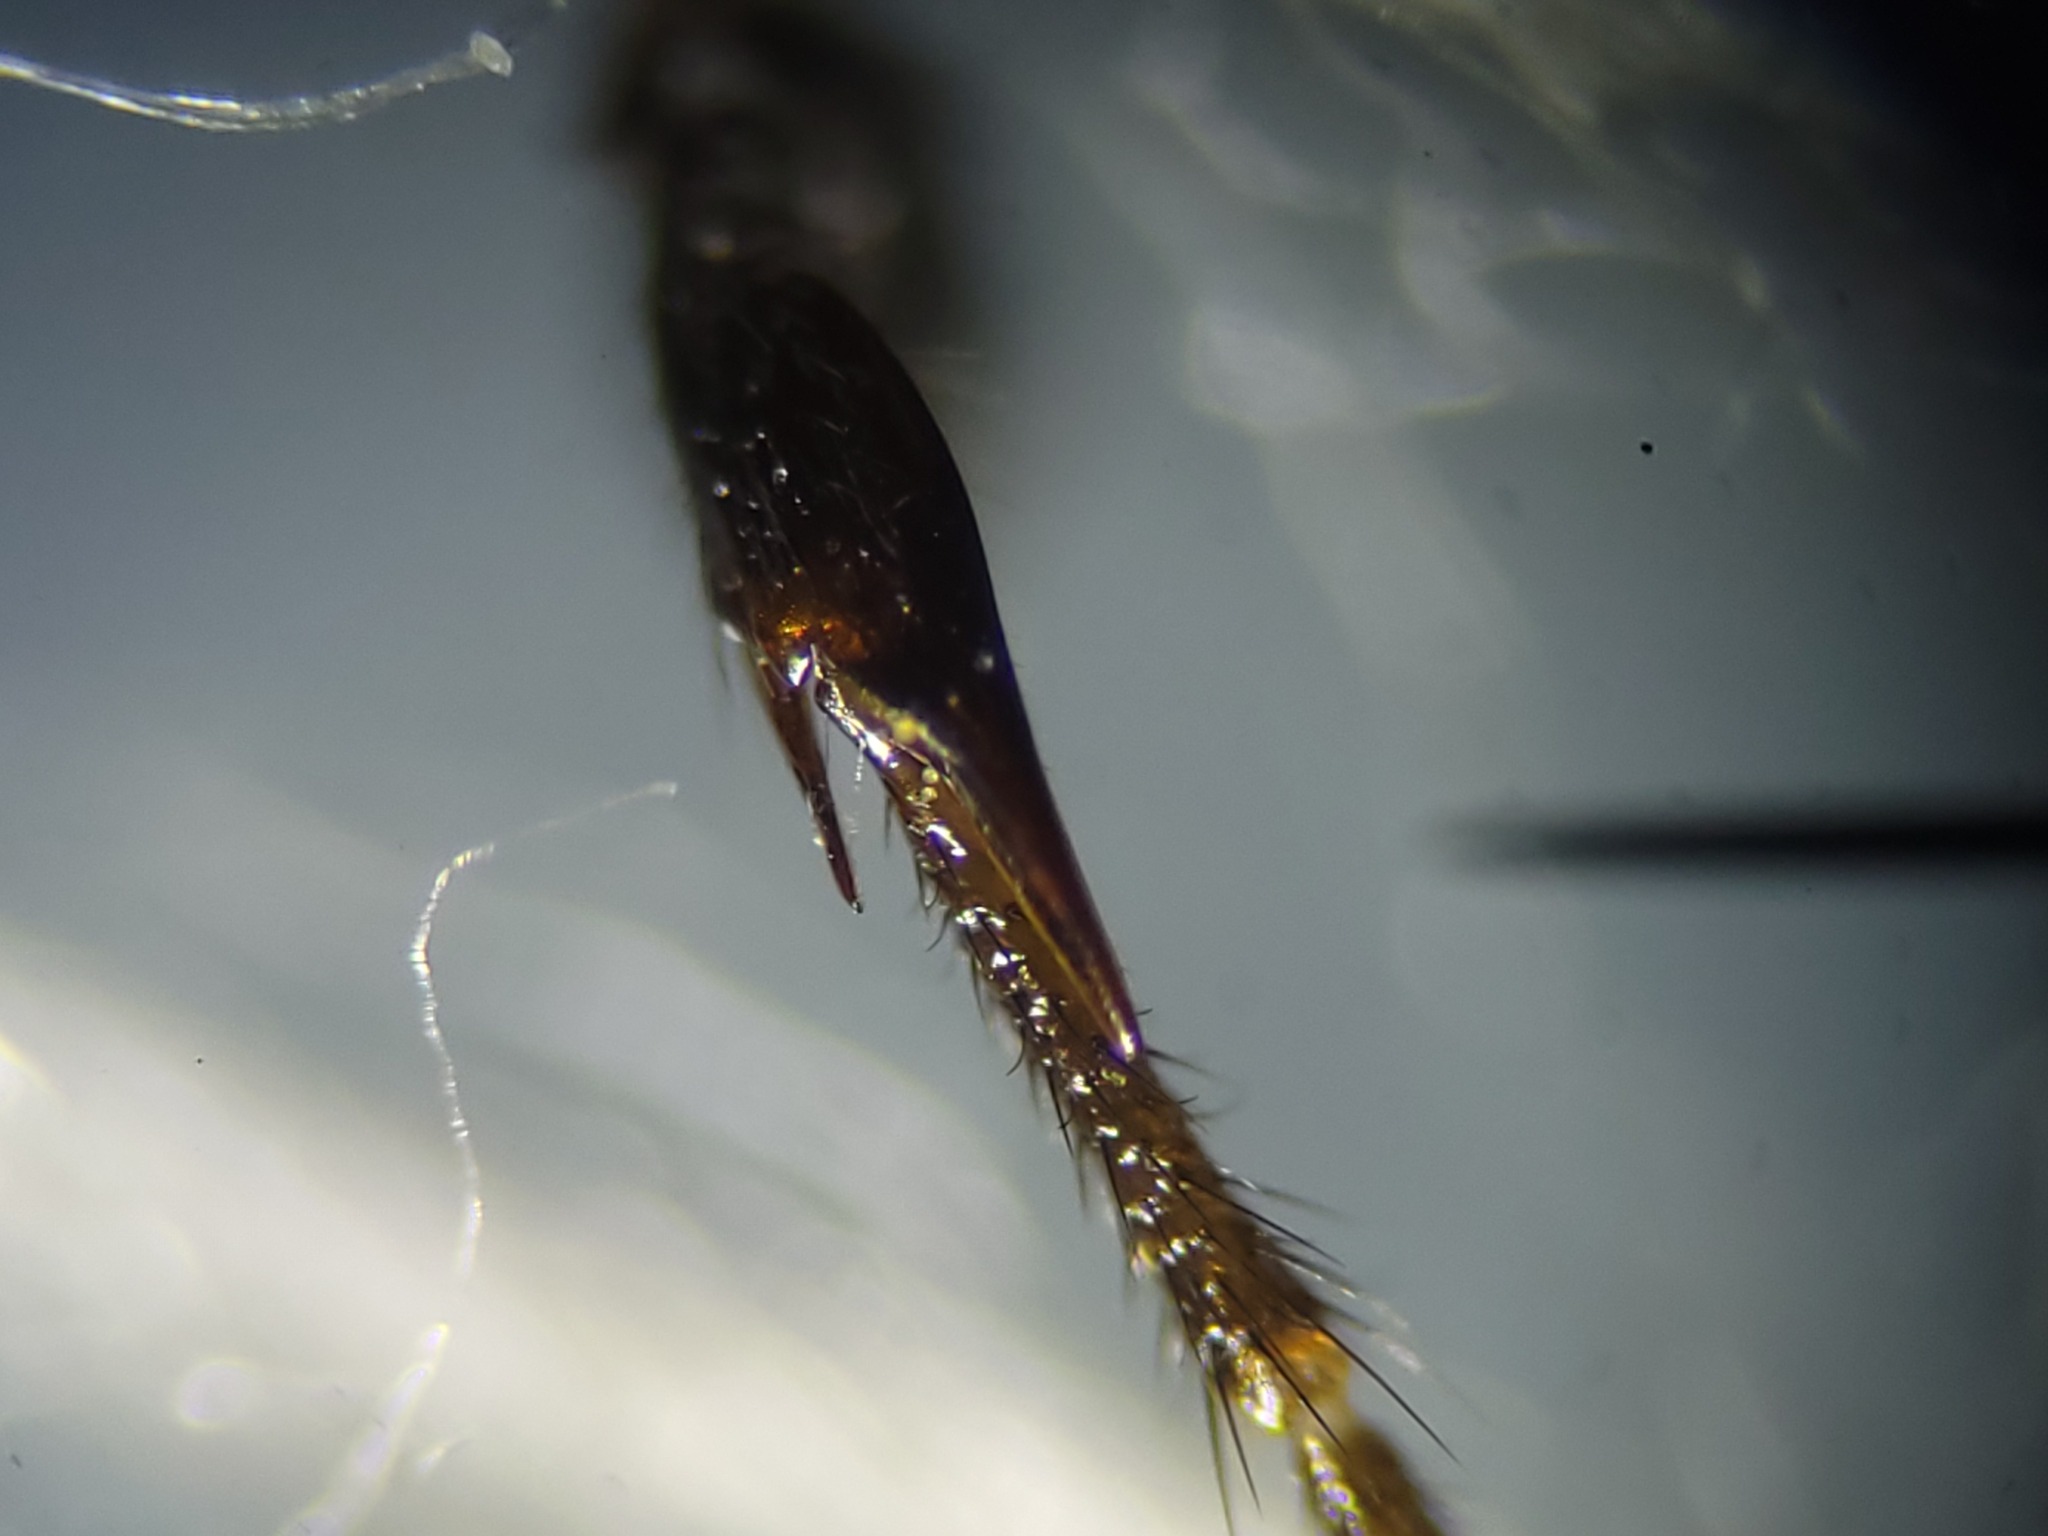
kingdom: Animalia
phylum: Arthropoda
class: Insecta
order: Diptera
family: Bibionidae
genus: Bibio
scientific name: Bibio albipennis
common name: White-winged march fly
